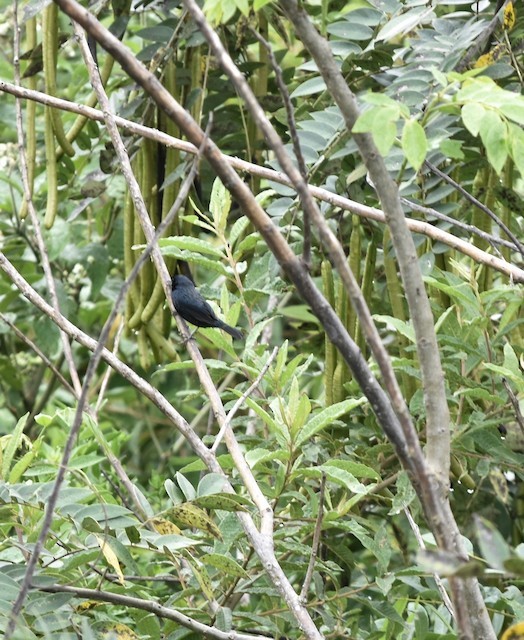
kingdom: Animalia
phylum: Chordata
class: Aves
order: Passeriformes
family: Thraupidae
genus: Volatinia
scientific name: Volatinia jacarina
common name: Blue-black grassquit
